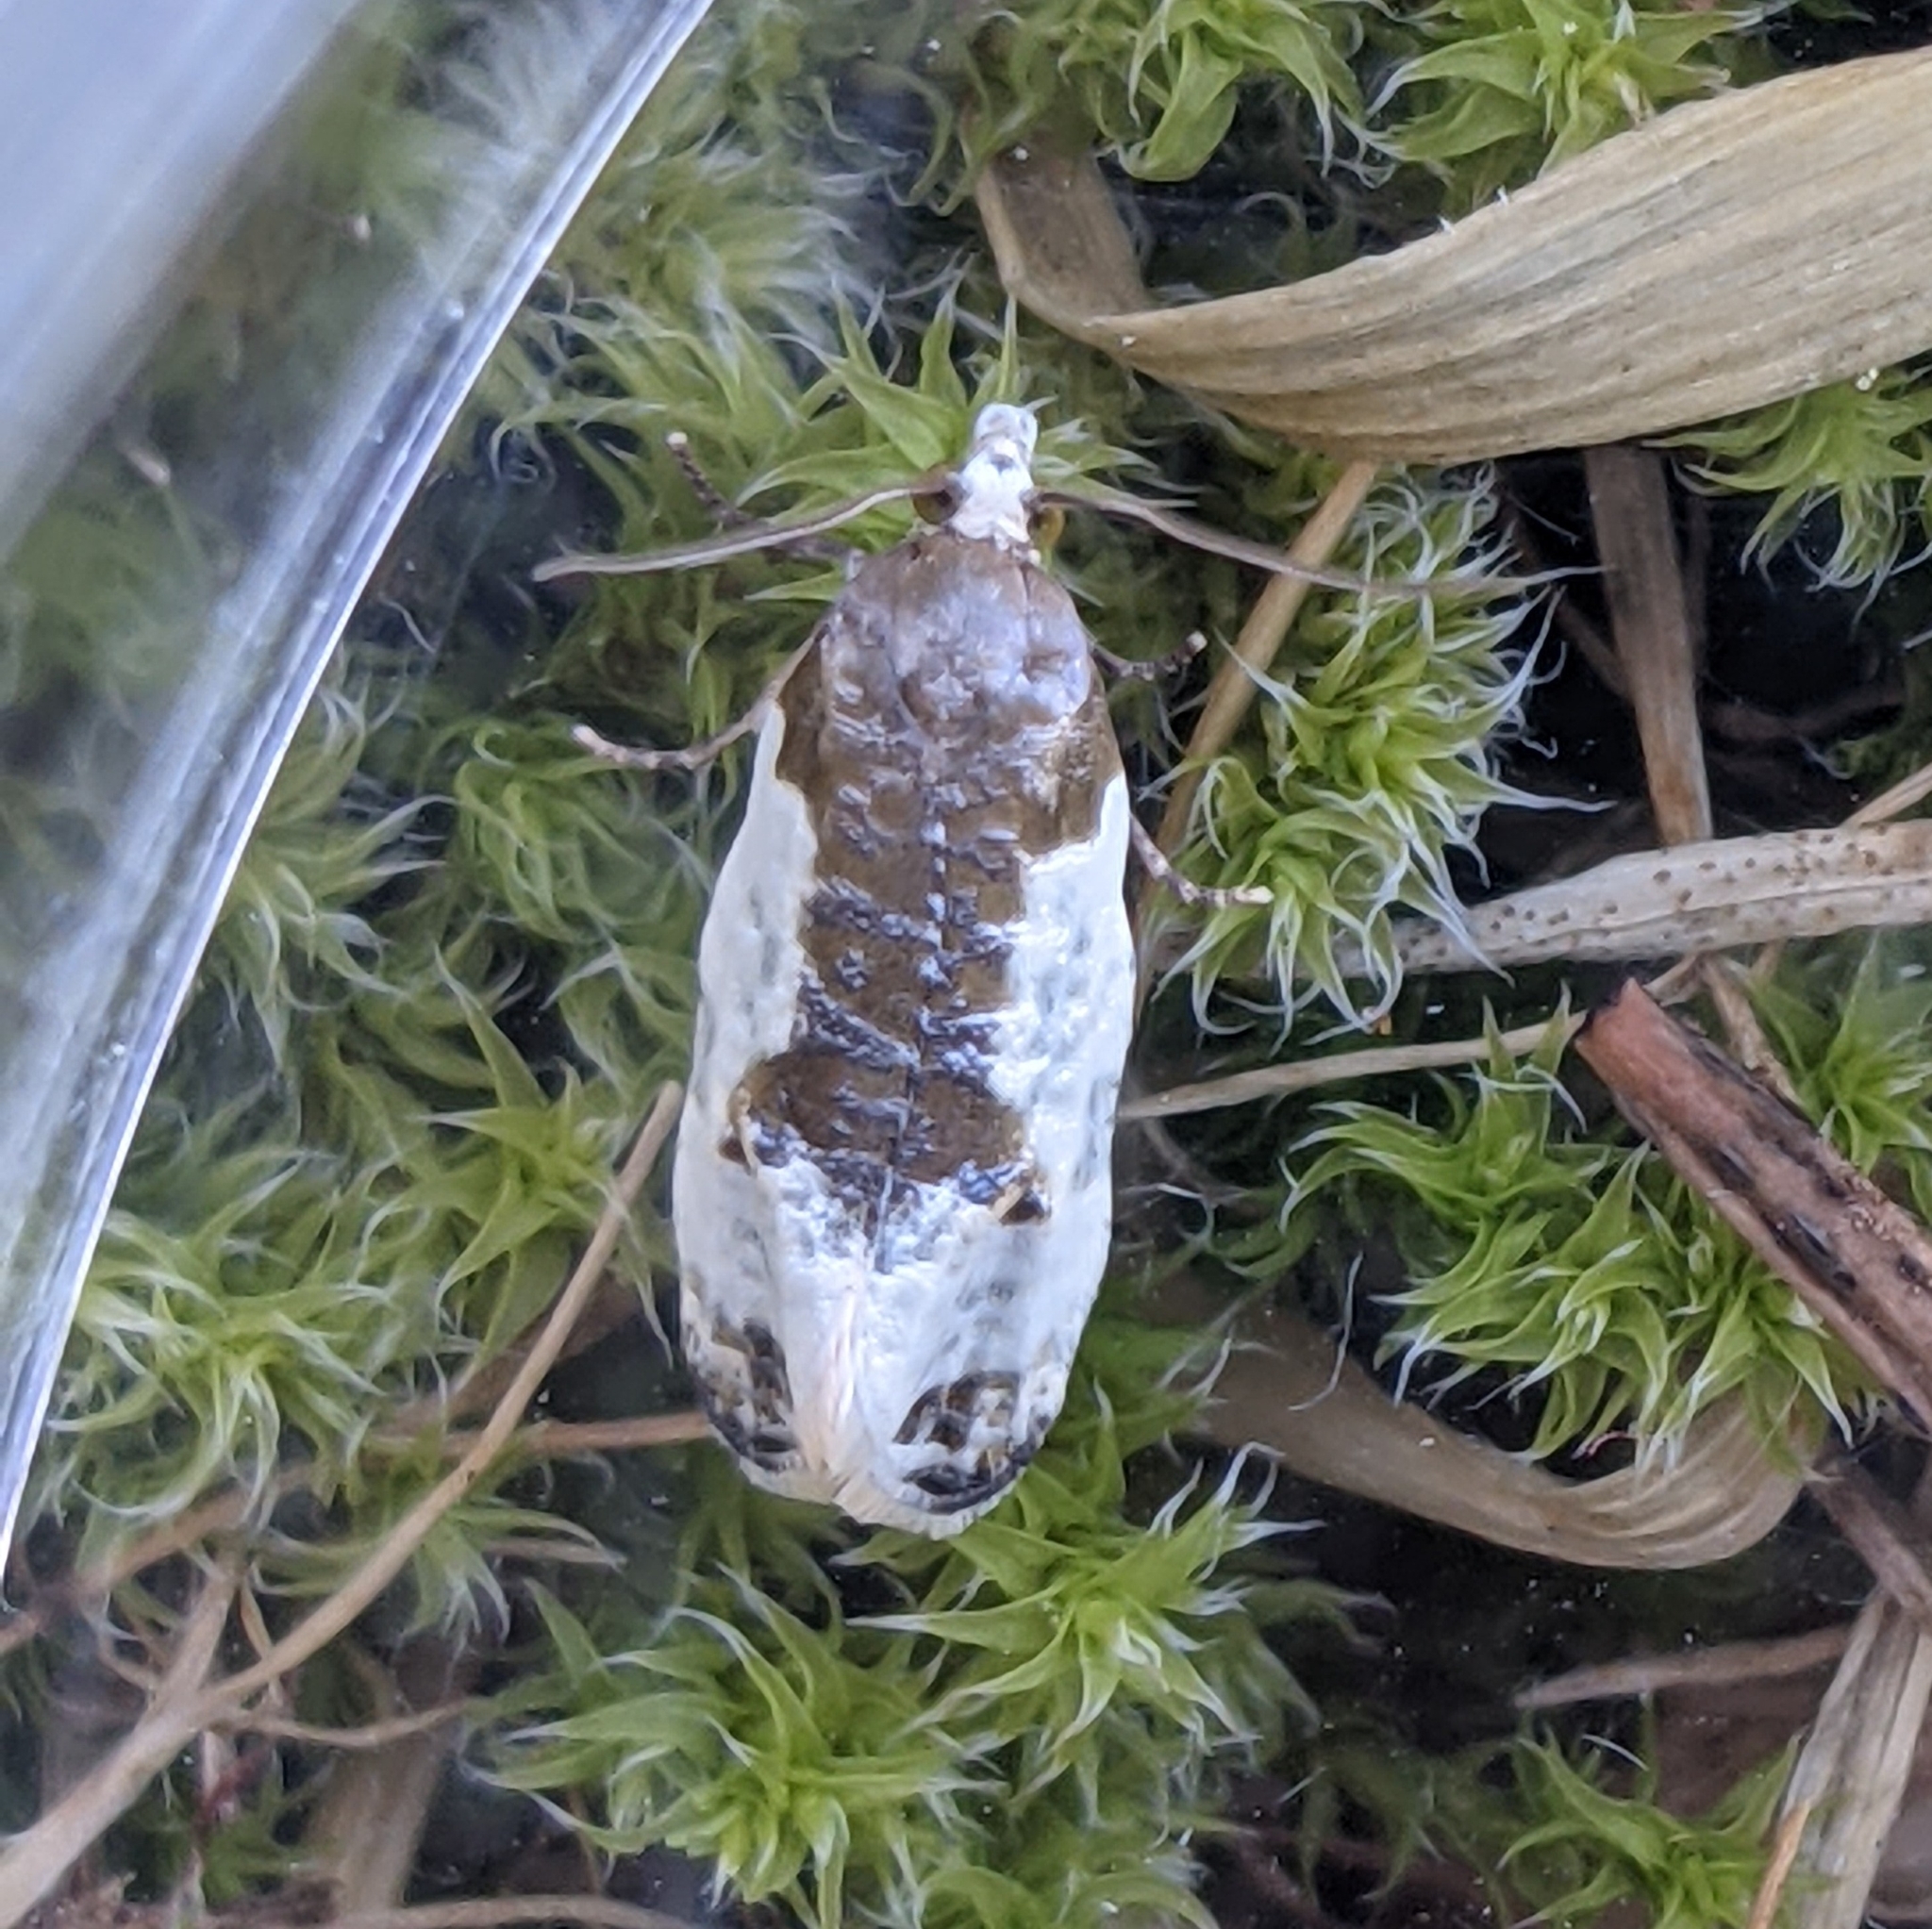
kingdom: Animalia
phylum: Arthropoda
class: Insecta
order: Lepidoptera
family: Tortricidae
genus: Henricus
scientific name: Henricus fuscodorsana
